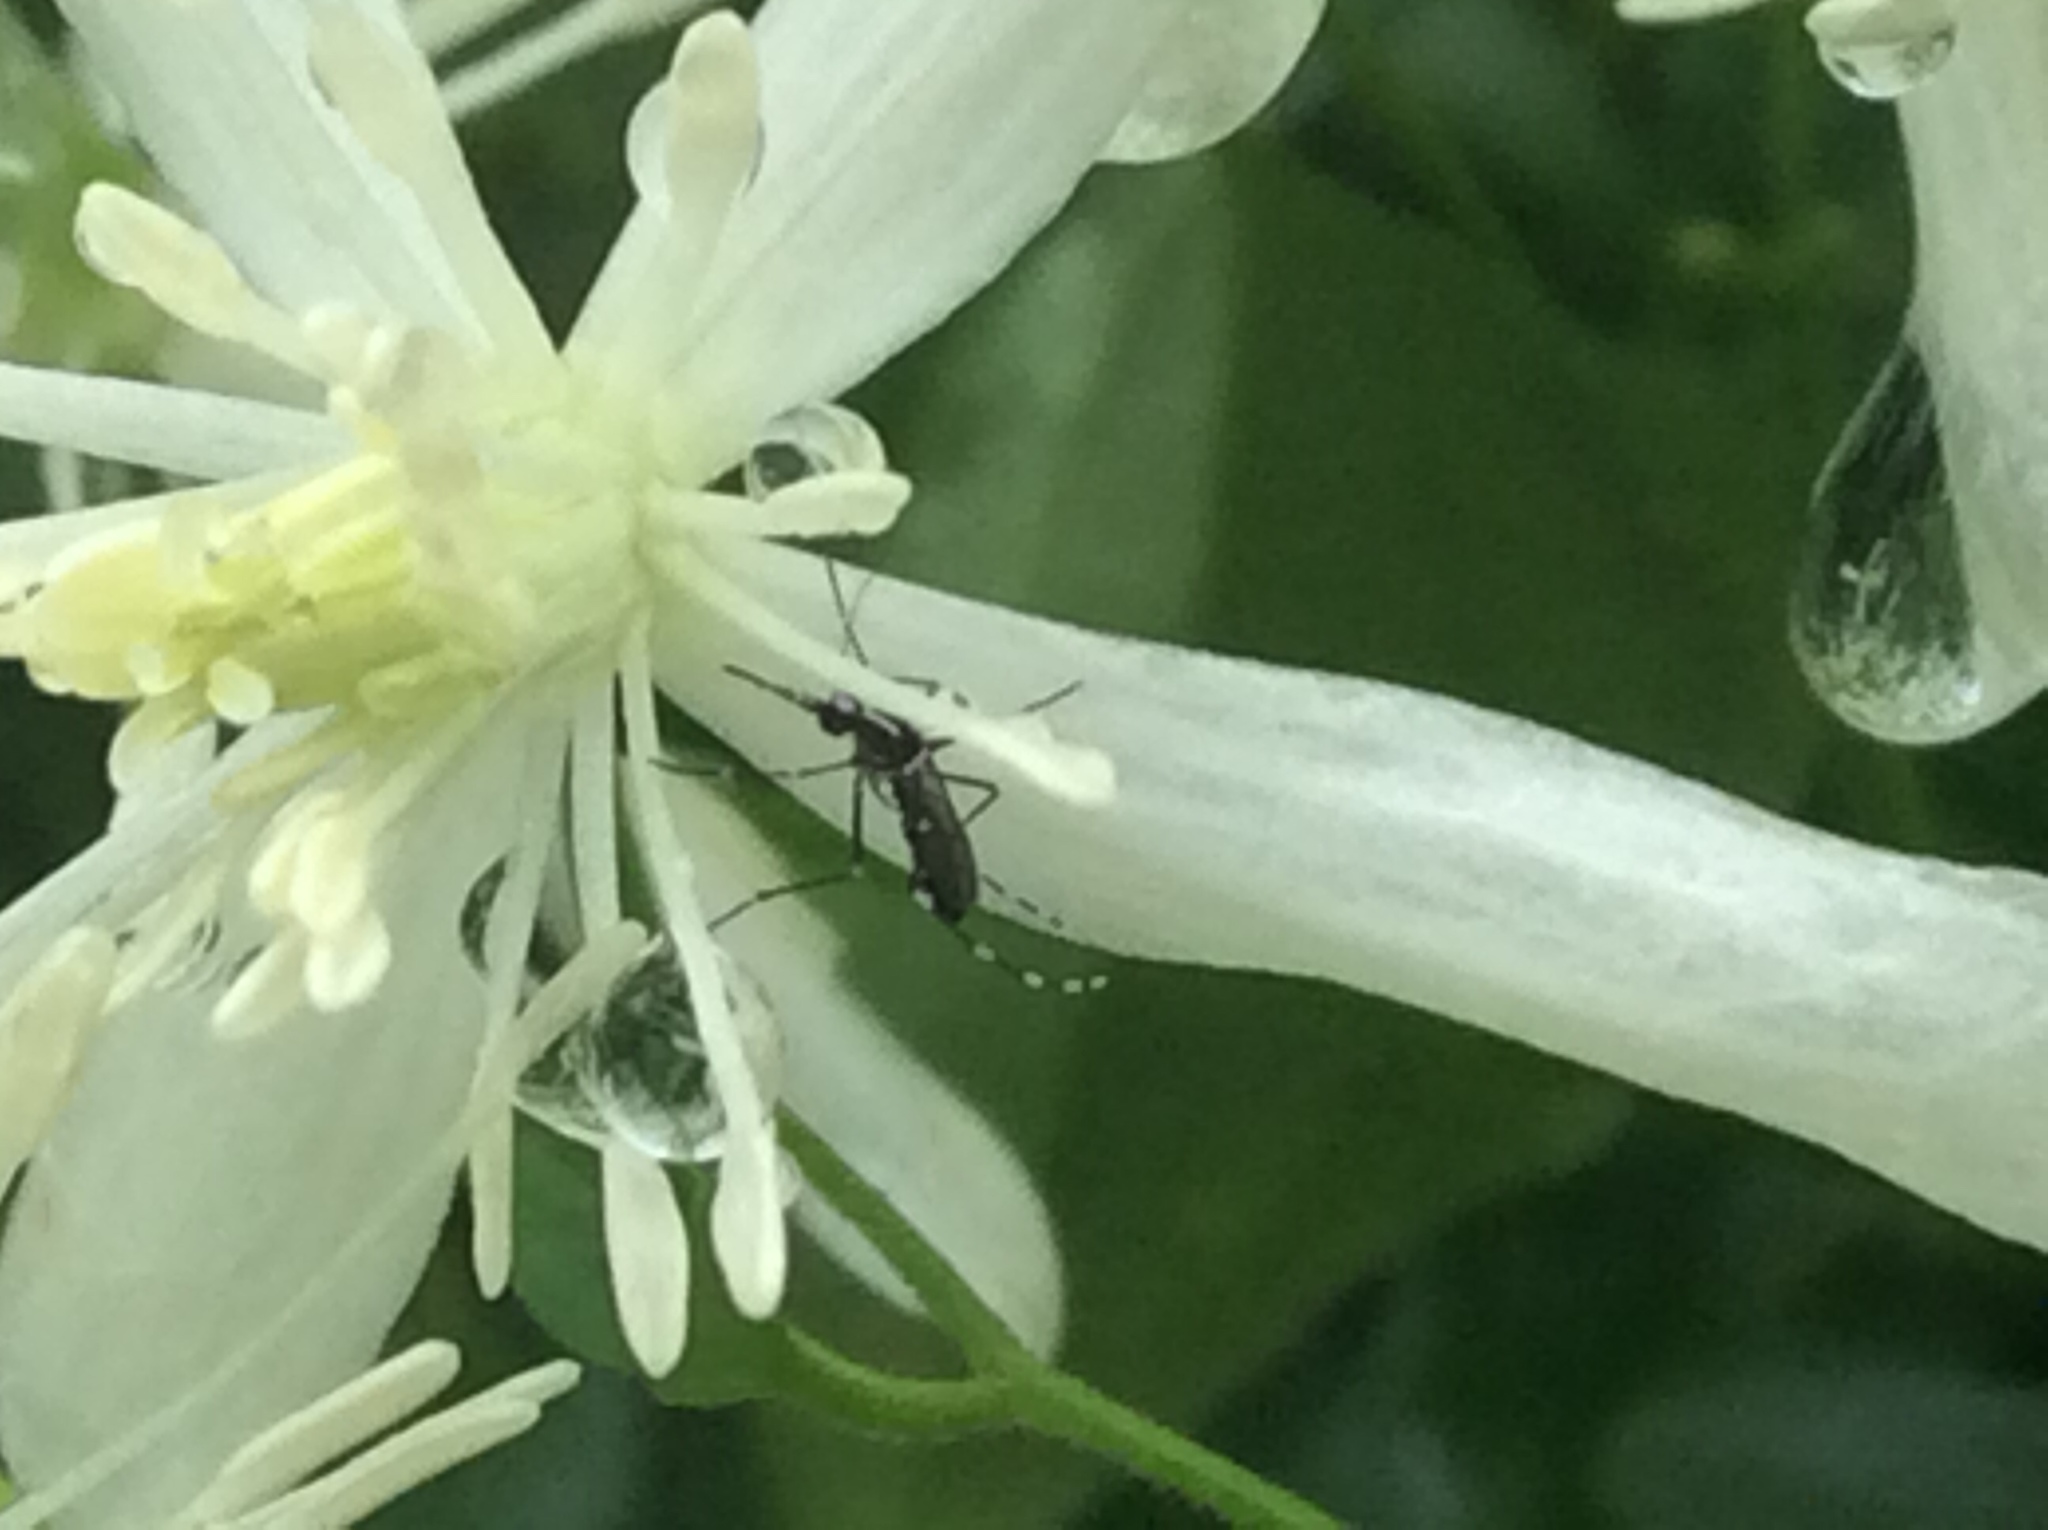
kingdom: Animalia
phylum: Arthropoda
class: Insecta
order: Diptera
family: Culicidae
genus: Aedes
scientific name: Aedes albopictus
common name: Tiger mosquito
